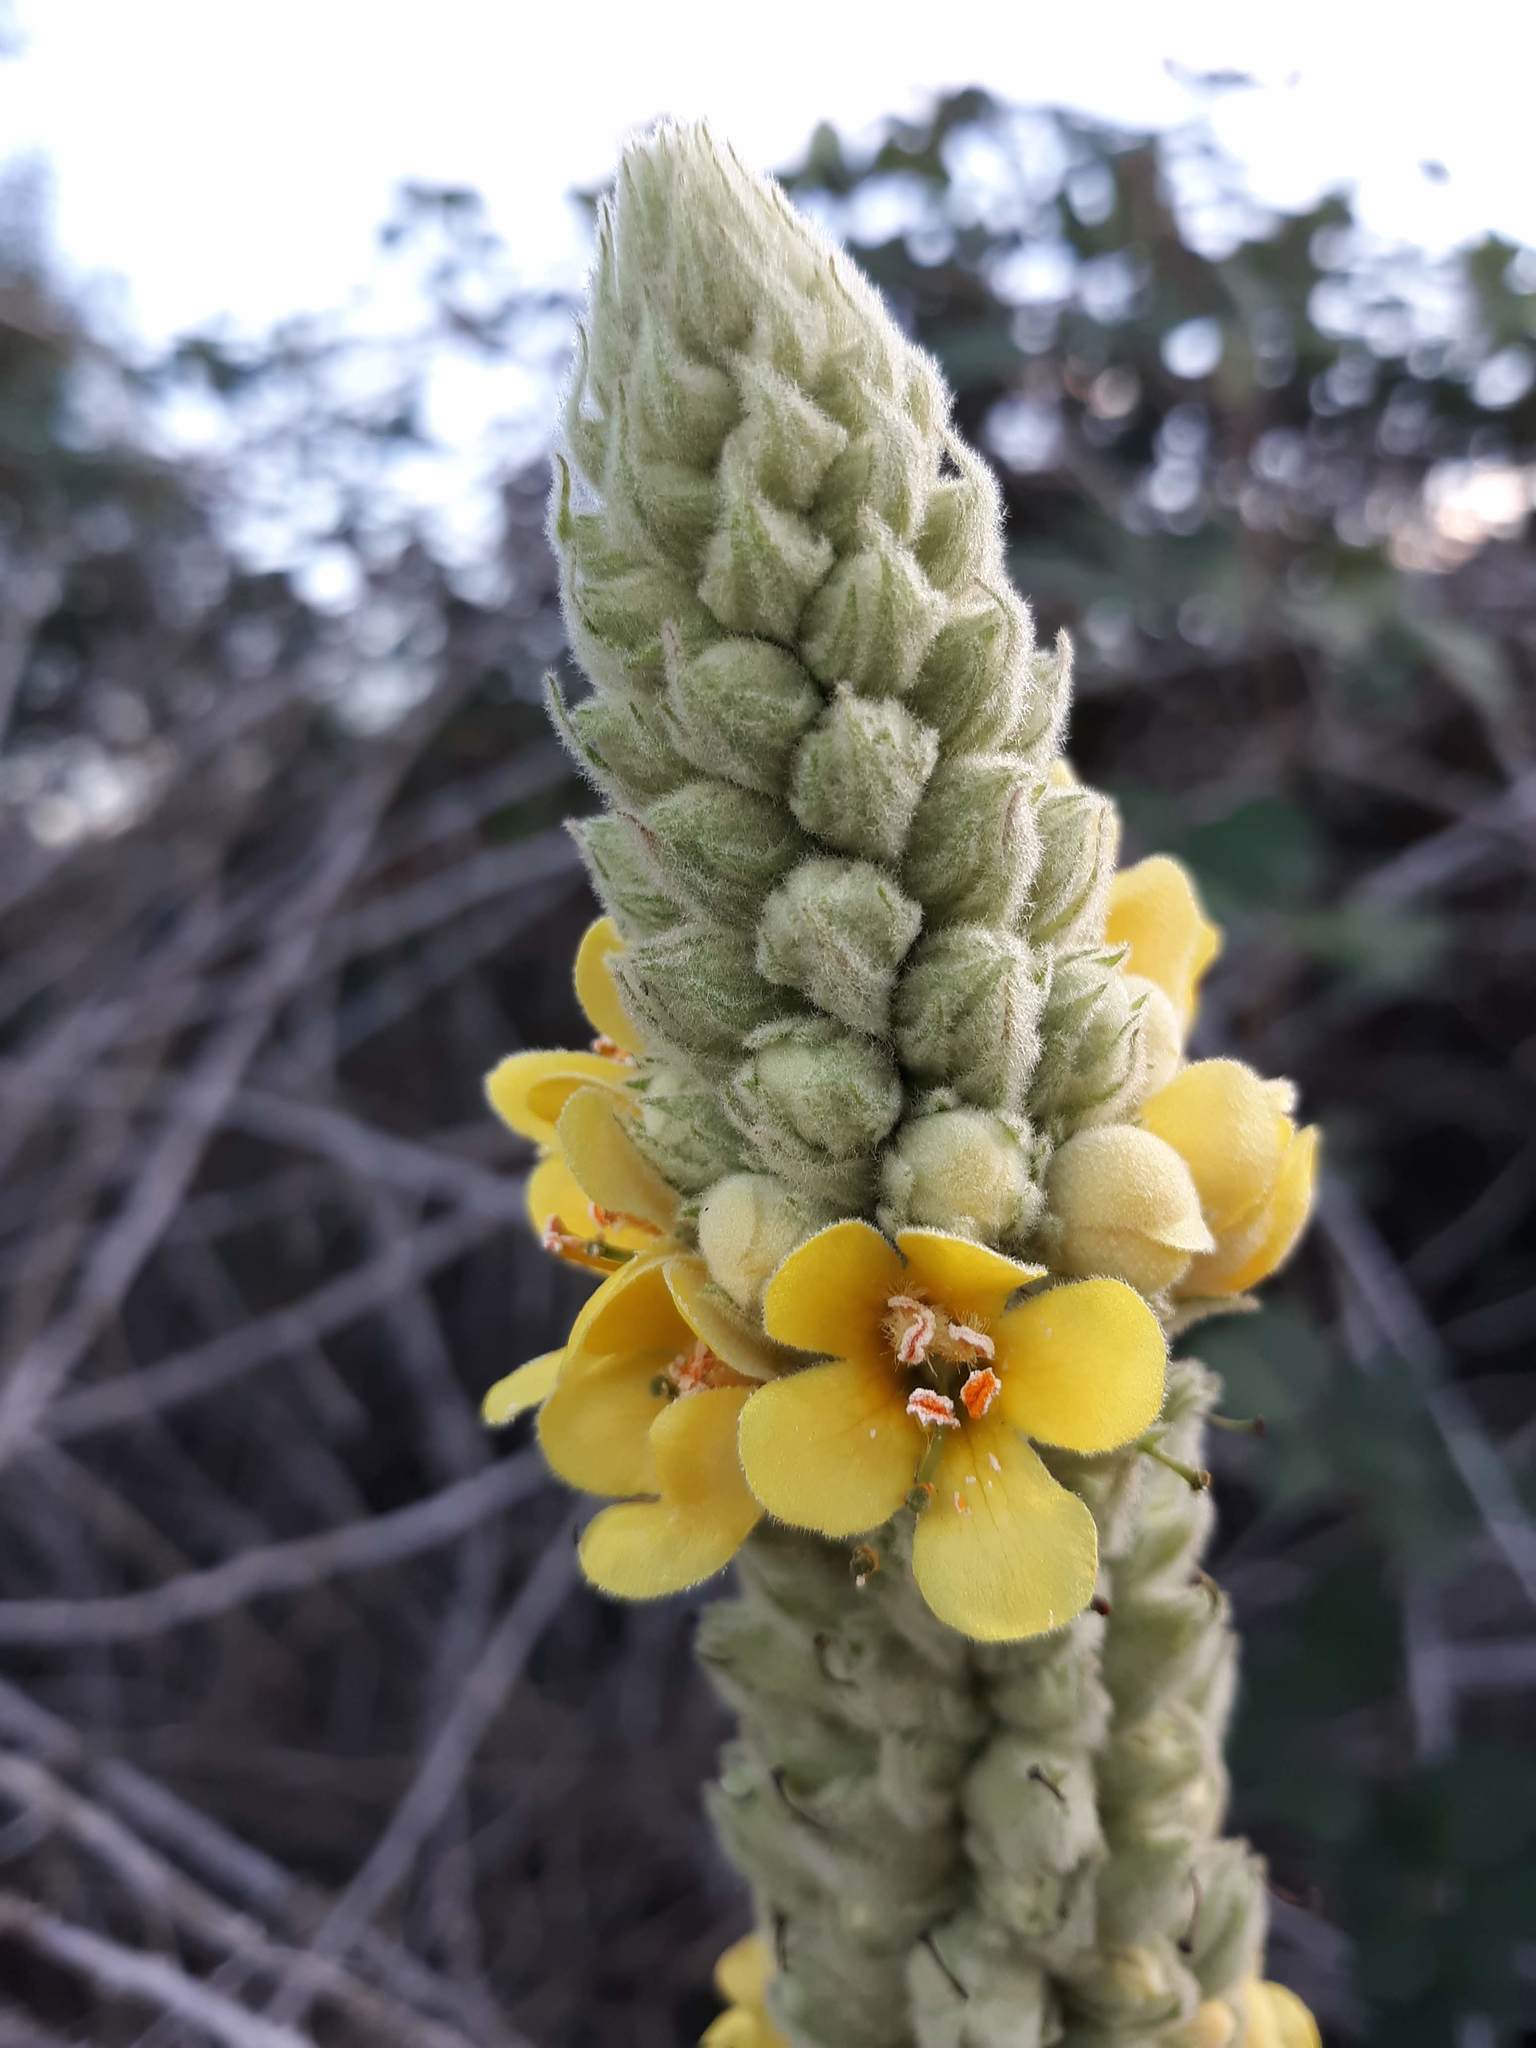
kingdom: Plantae
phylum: Tracheophyta
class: Magnoliopsida
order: Lamiales
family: Scrophulariaceae
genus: Verbascum
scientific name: Verbascum thapsus
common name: Common mullein
